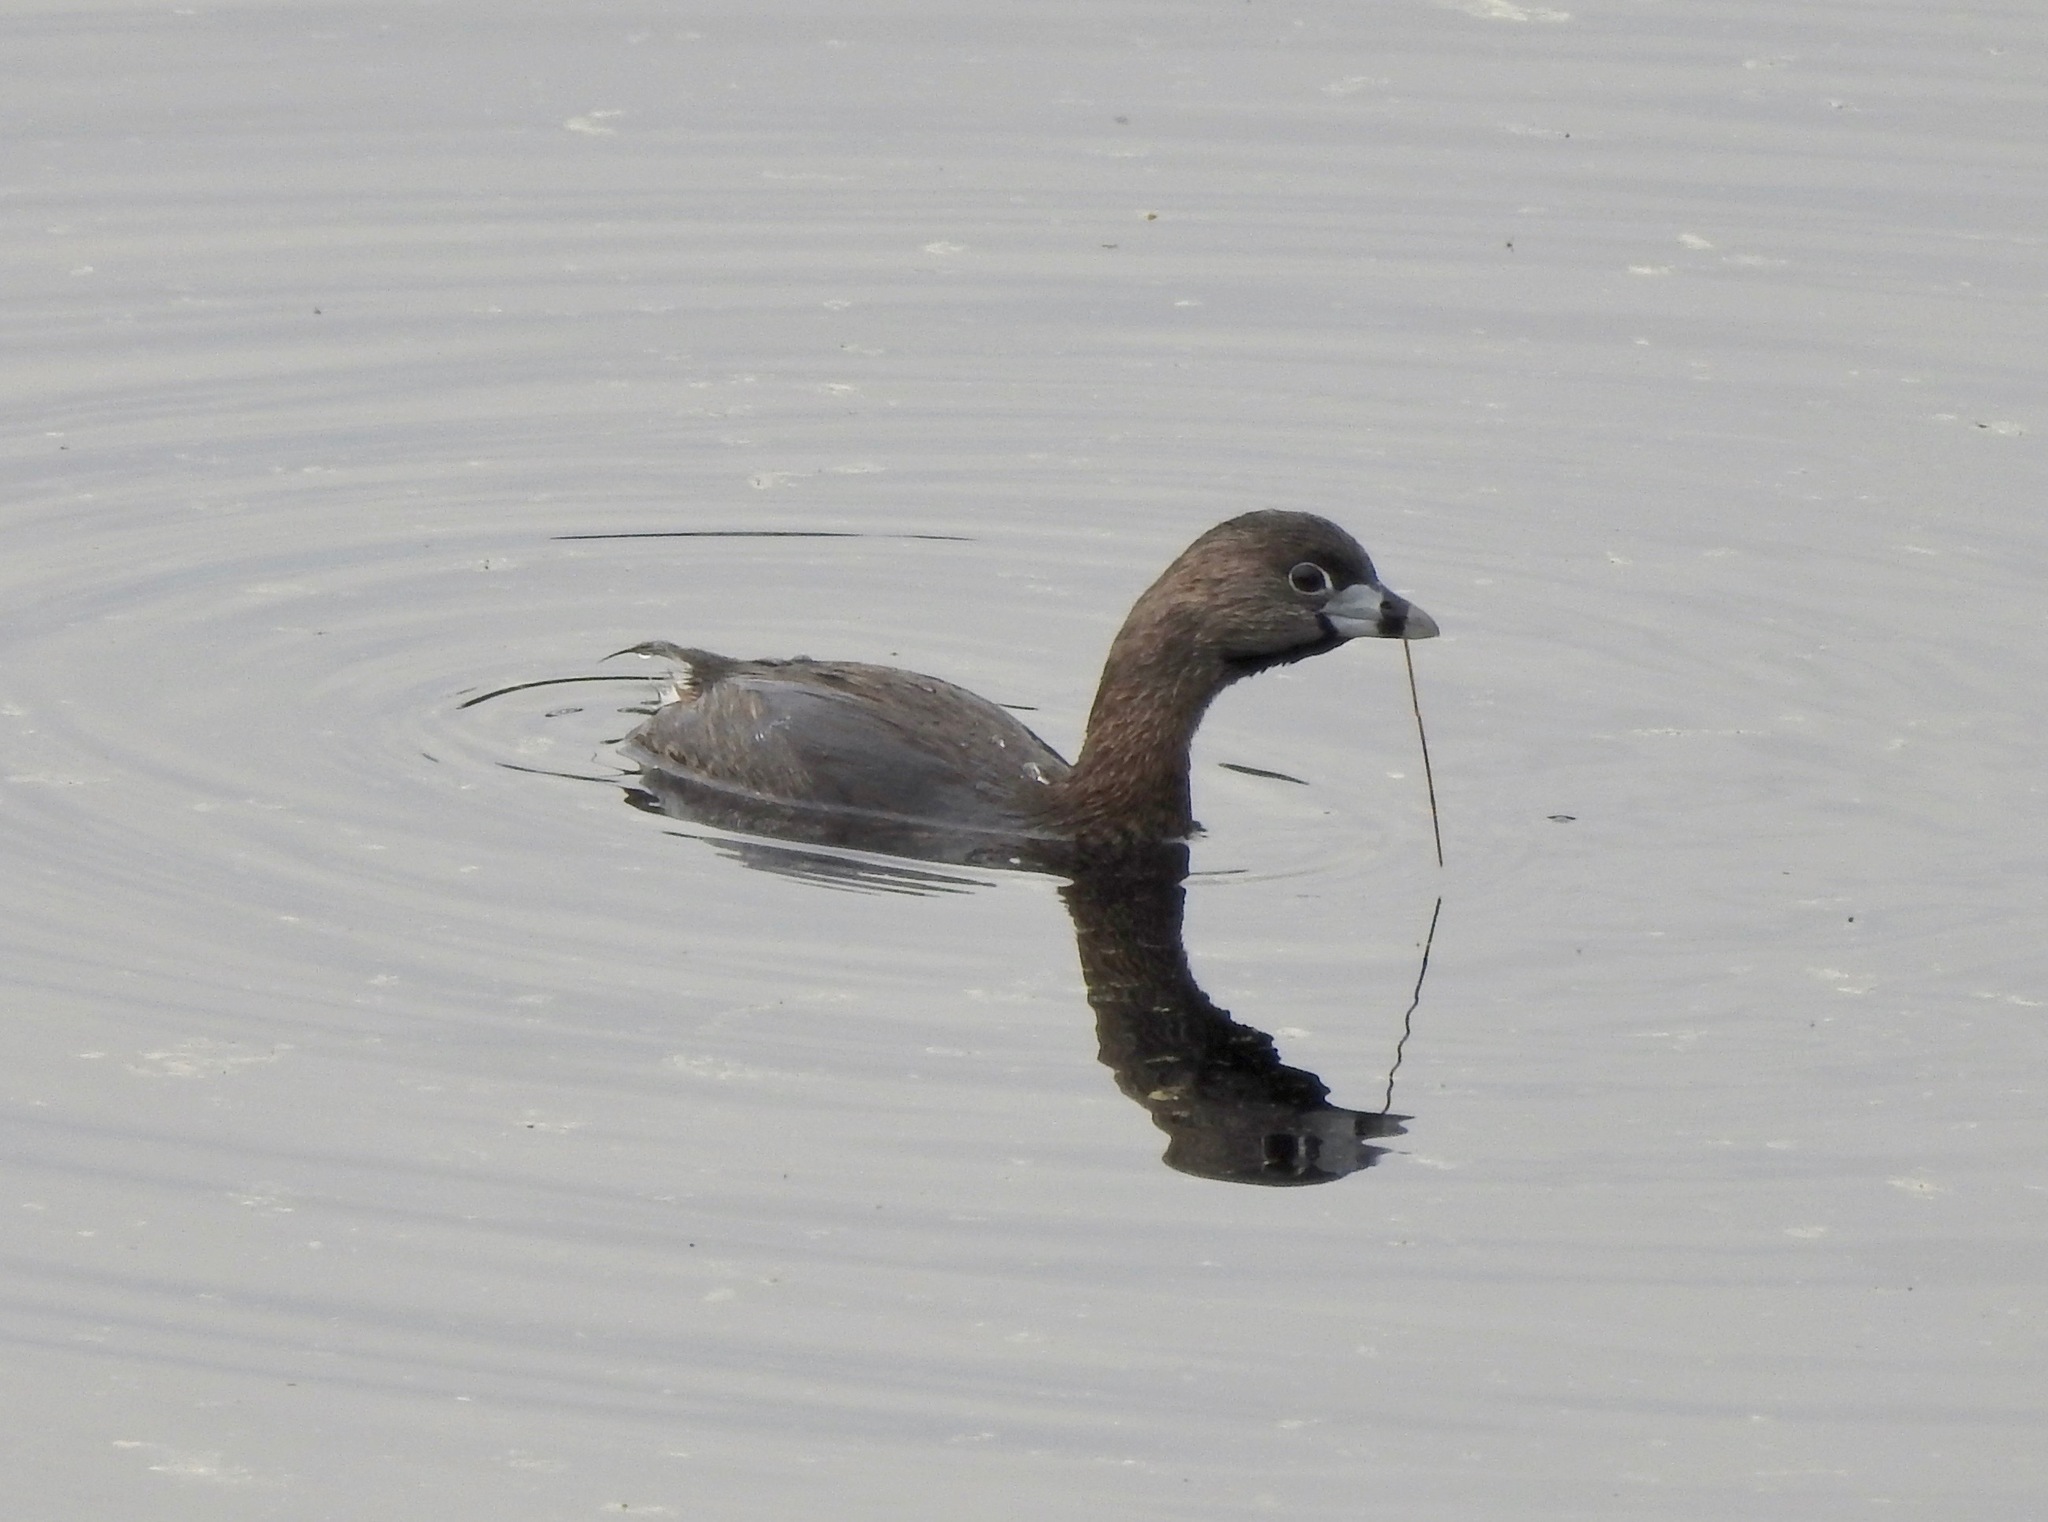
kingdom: Animalia
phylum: Chordata
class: Aves
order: Podicipediformes
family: Podicipedidae
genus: Podilymbus
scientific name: Podilymbus podiceps
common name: Pied-billed grebe
